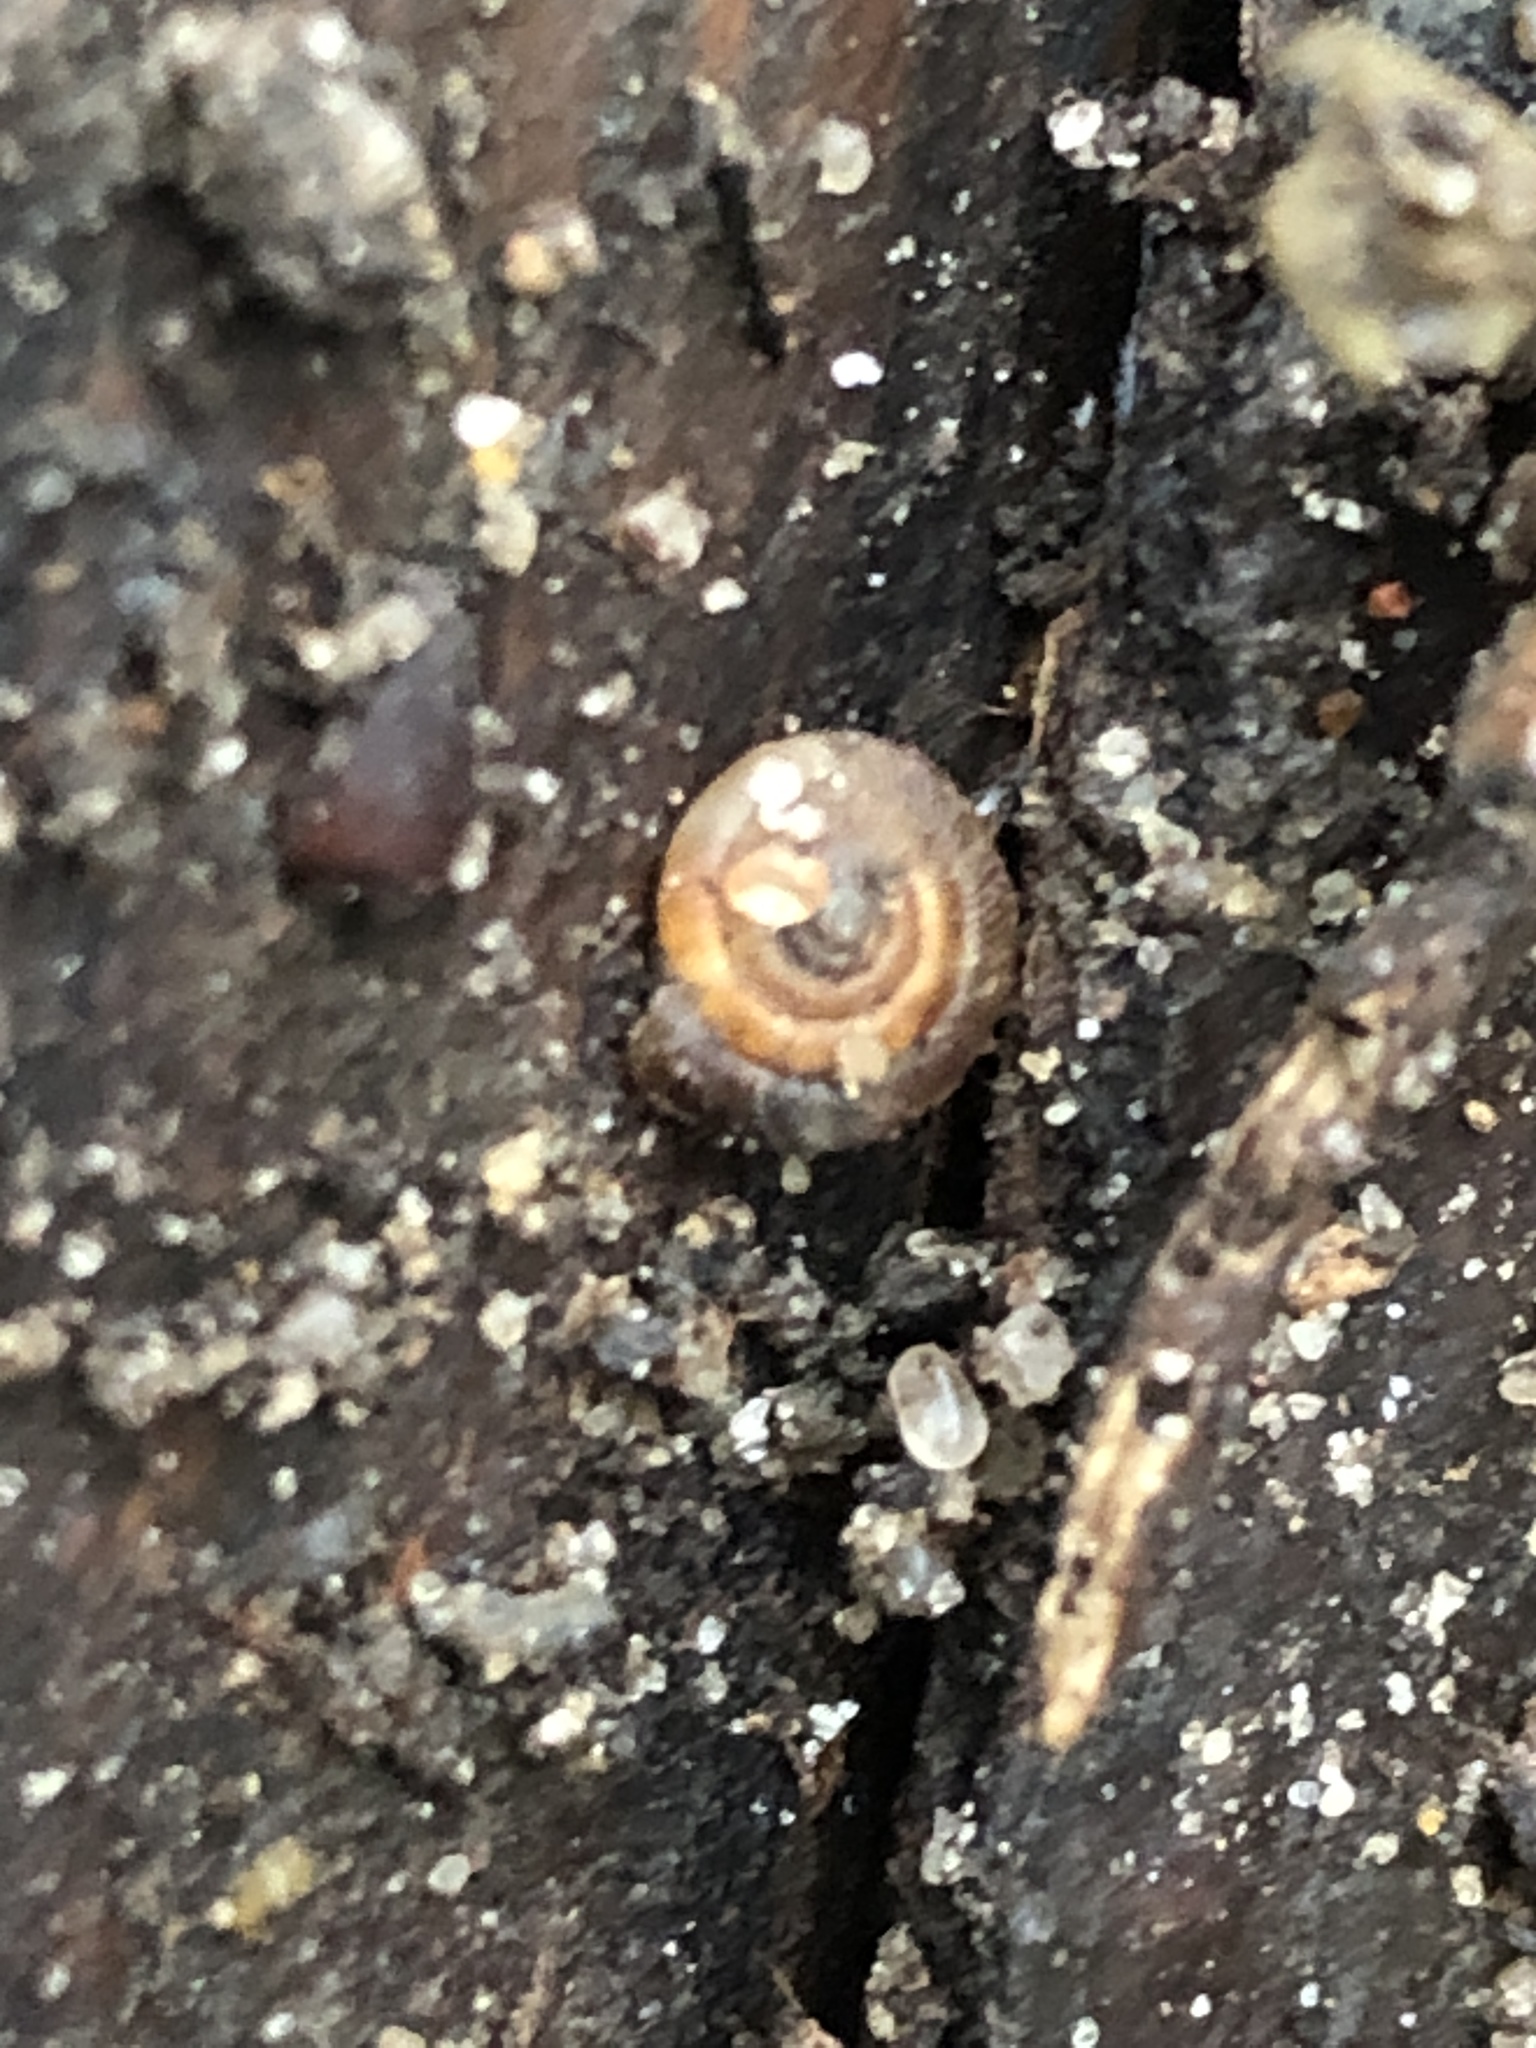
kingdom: Animalia
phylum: Mollusca
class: Gastropoda
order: Stylommatophora
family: Discidae
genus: Discus
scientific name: Discus rotundatus
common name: Rounded snail
